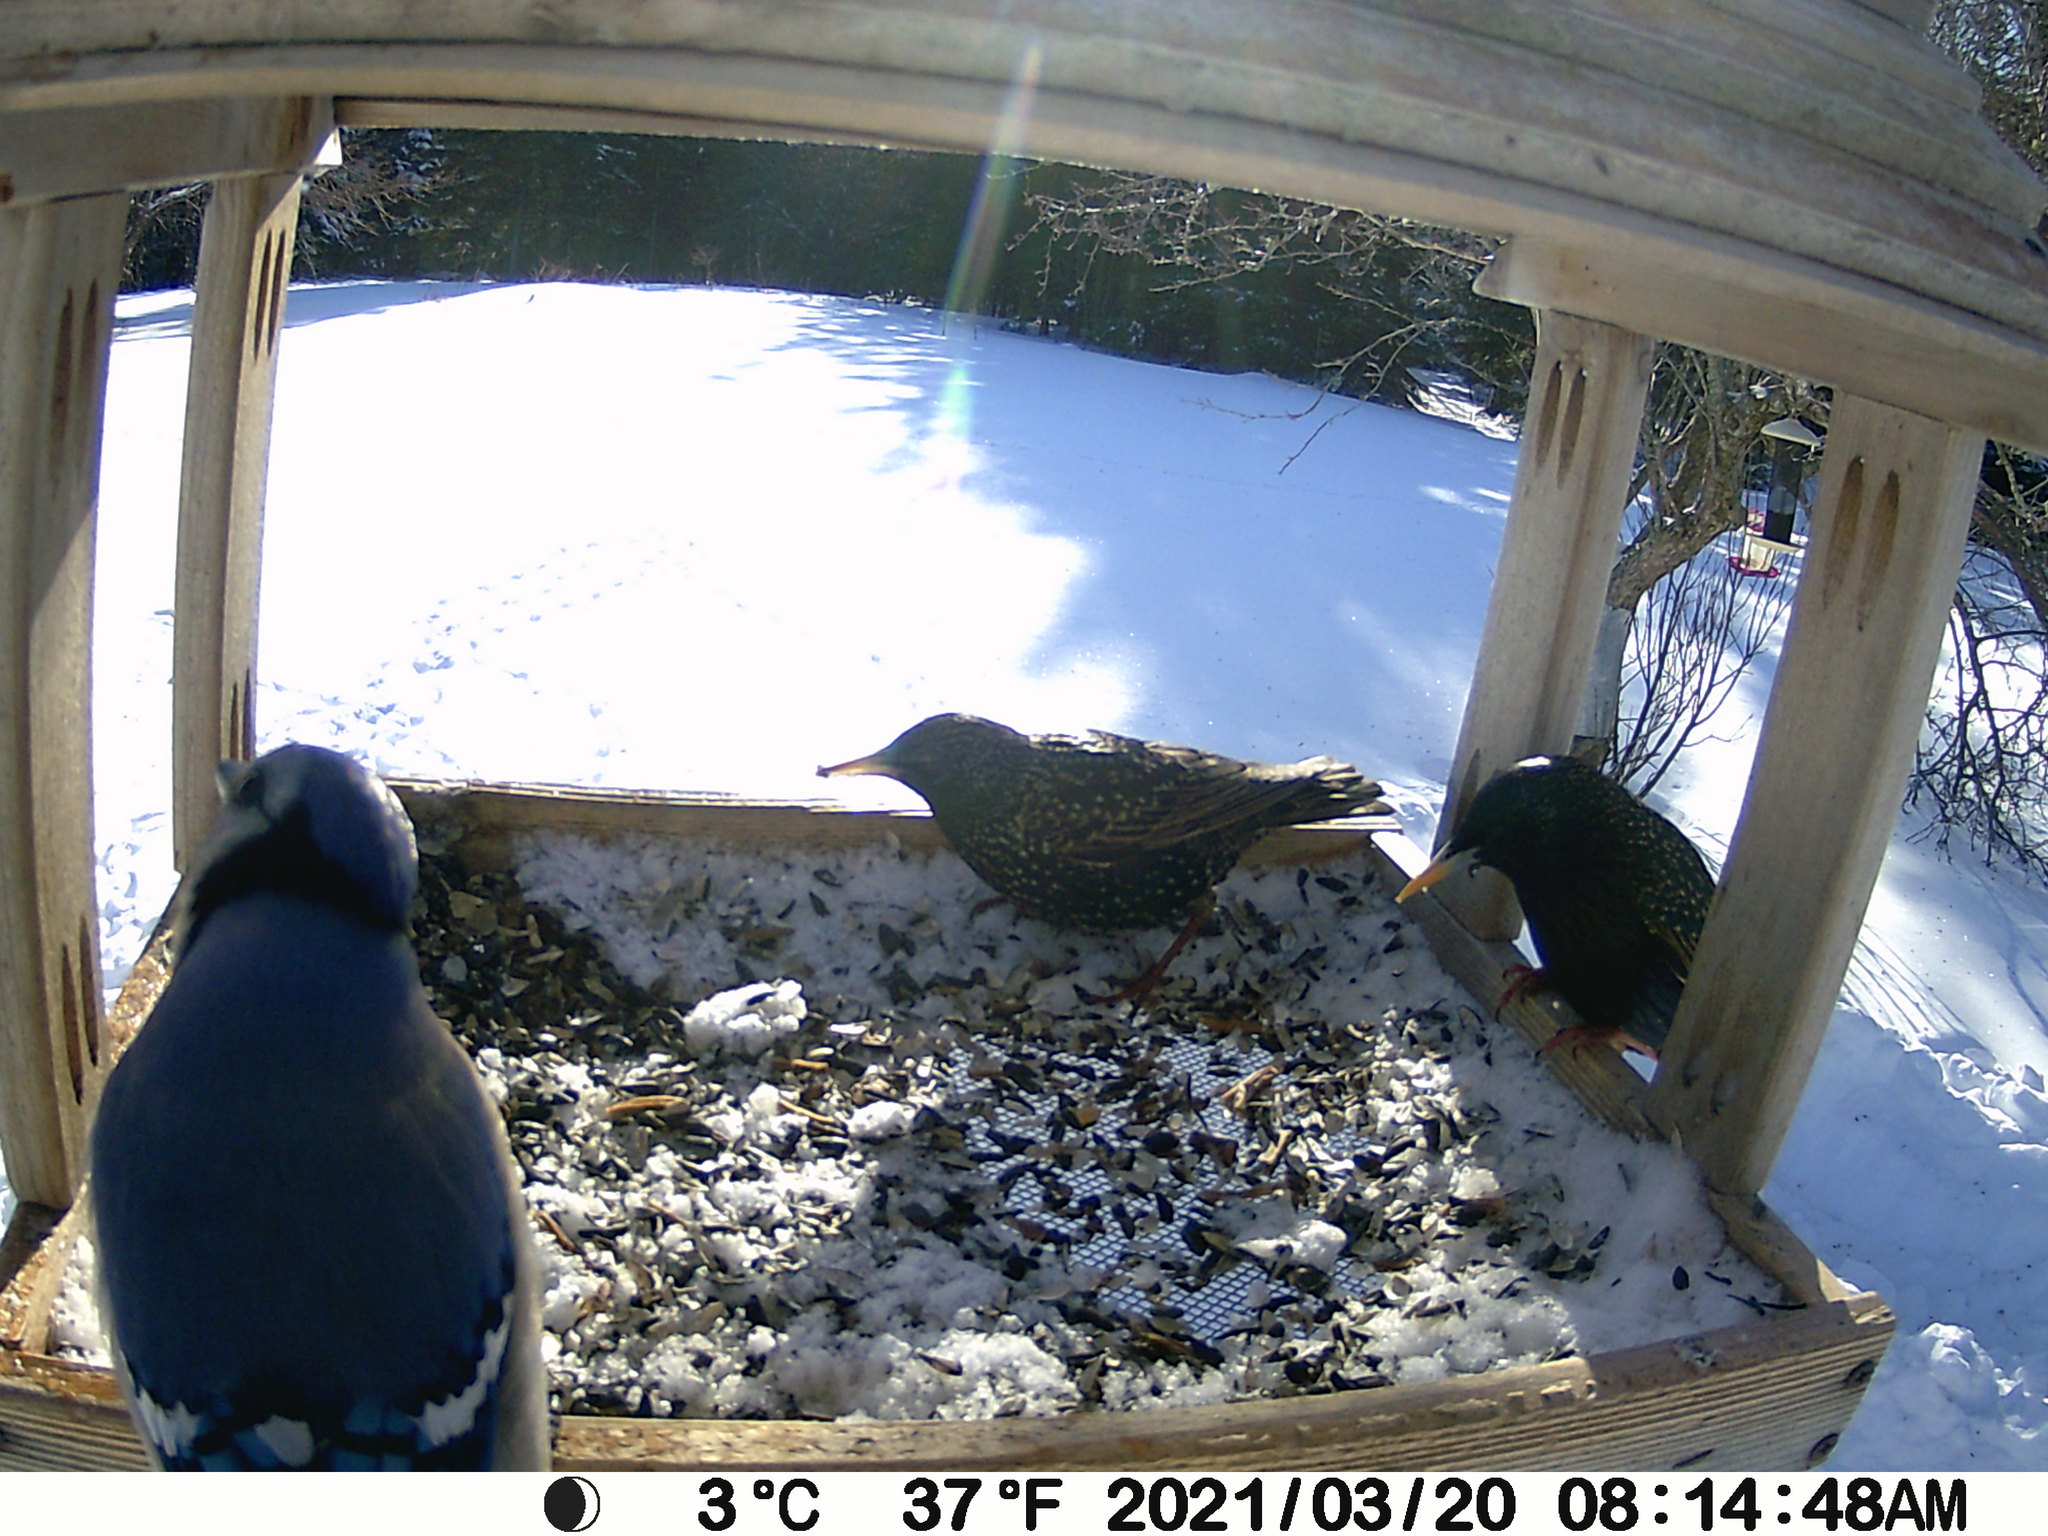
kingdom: Animalia
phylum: Chordata
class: Aves
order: Passeriformes
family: Sturnidae
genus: Sturnus
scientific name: Sturnus vulgaris
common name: Common starling
